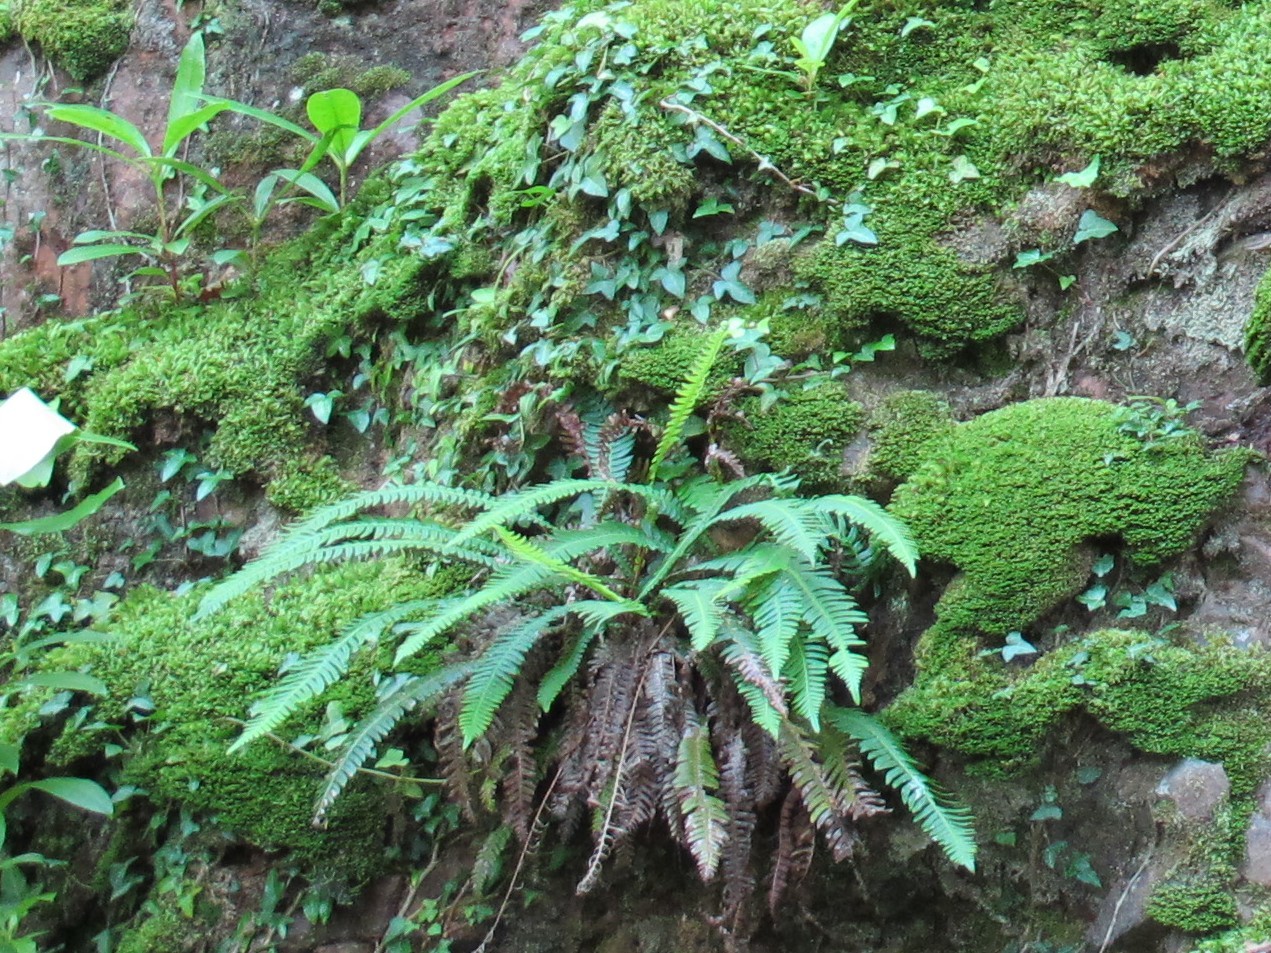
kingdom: Plantae
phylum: Tracheophyta
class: Polypodiopsida
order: Polypodiales
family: Blechnaceae
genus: Struthiopteris
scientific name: Struthiopteris spicant
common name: Deer fern
